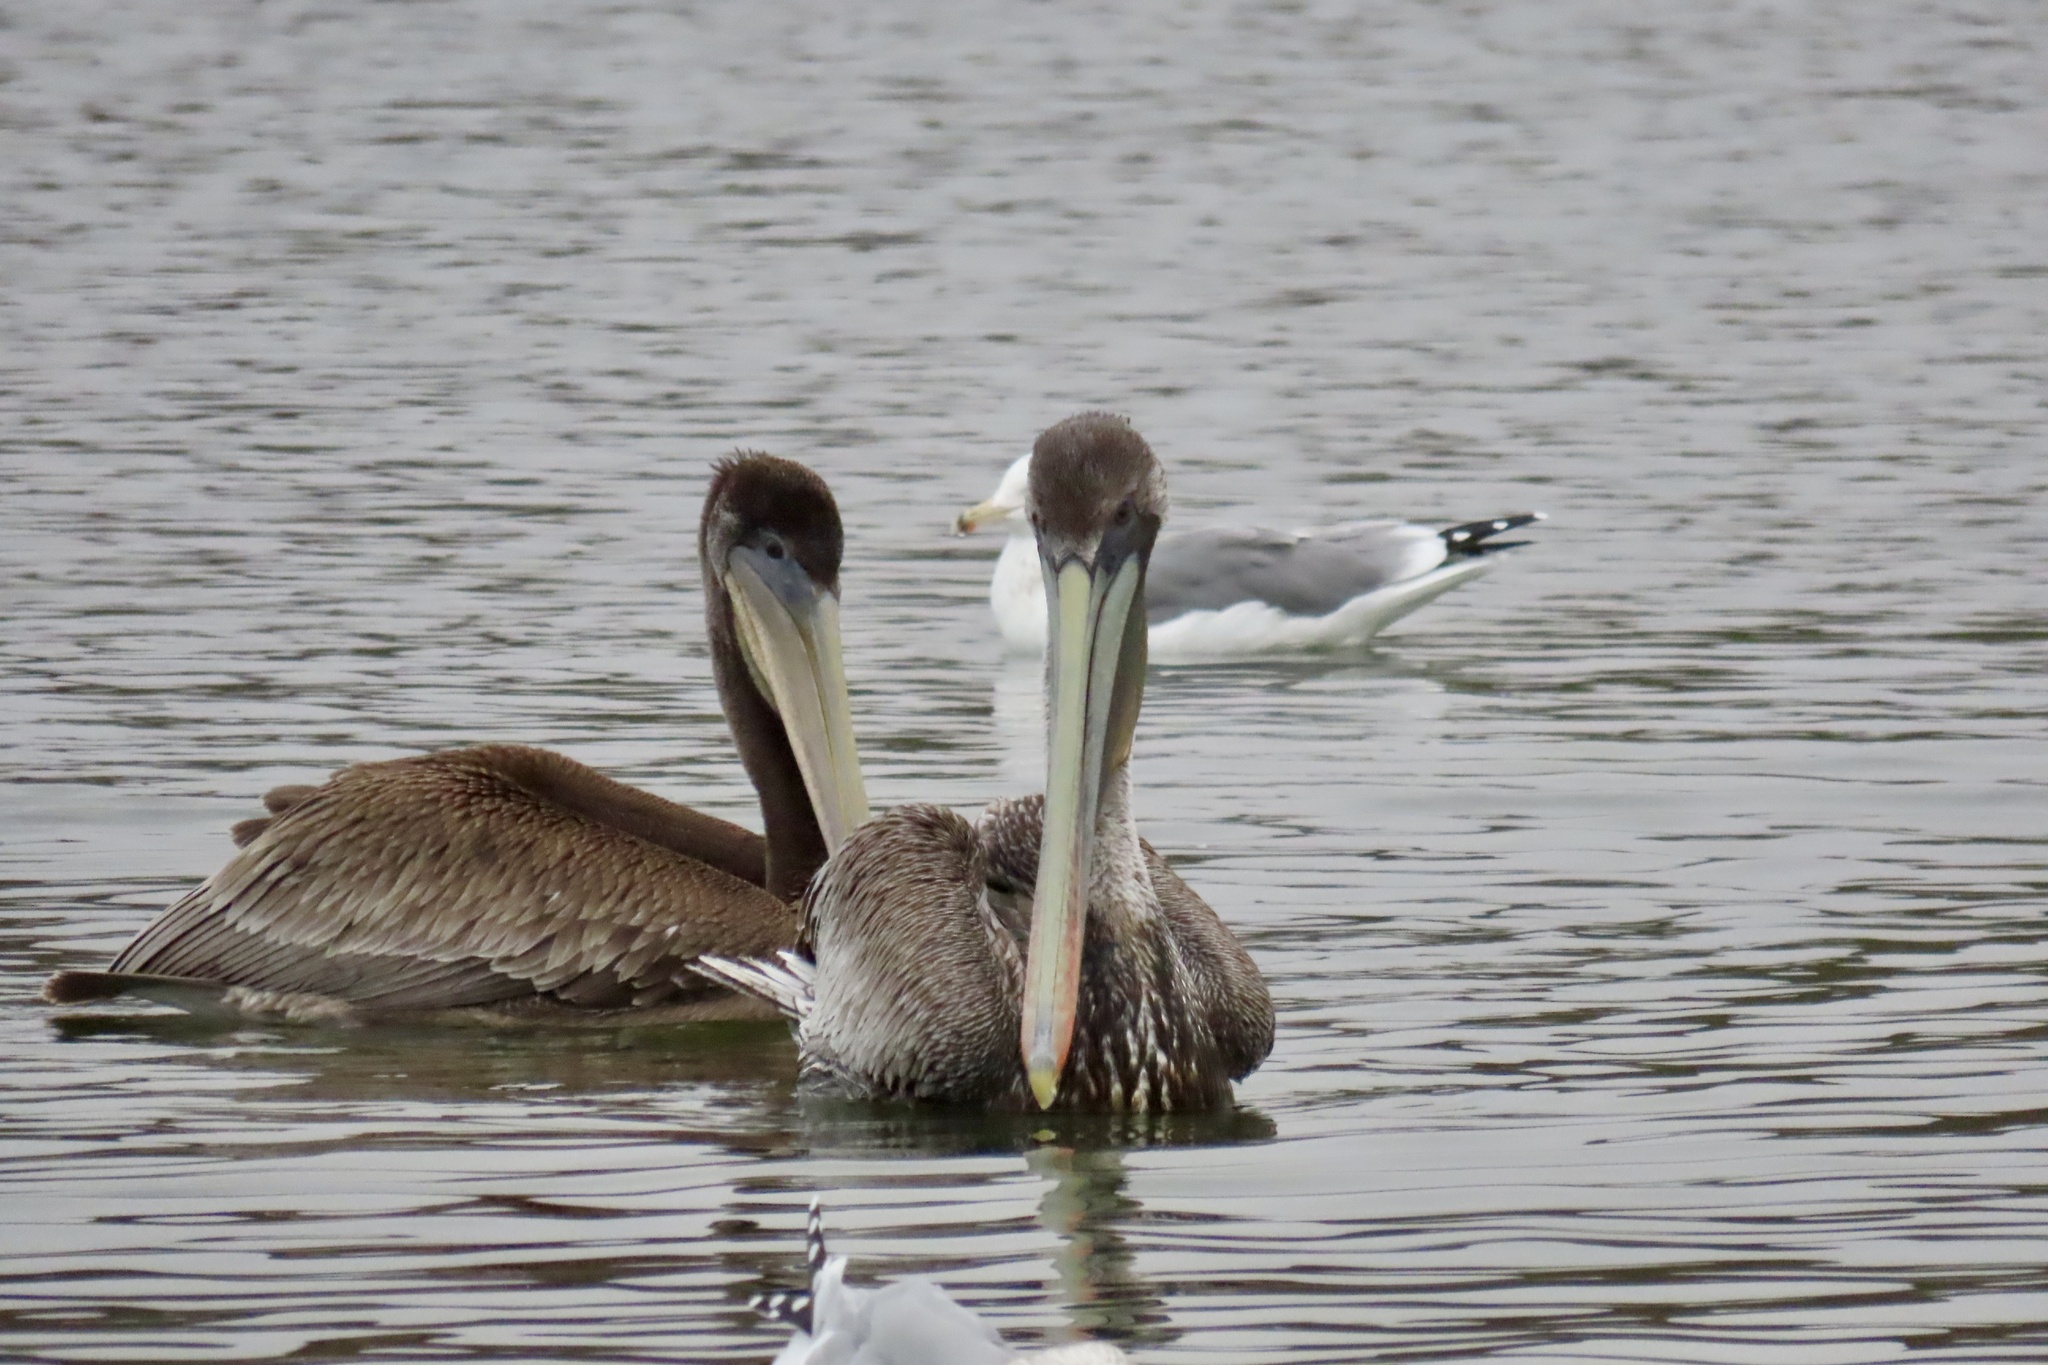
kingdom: Animalia
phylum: Chordata
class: Aves
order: Pelecaniformes
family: Pelecanidae
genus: Pelecanus
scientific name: Pelecanus occidentalis
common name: Brown pelican
